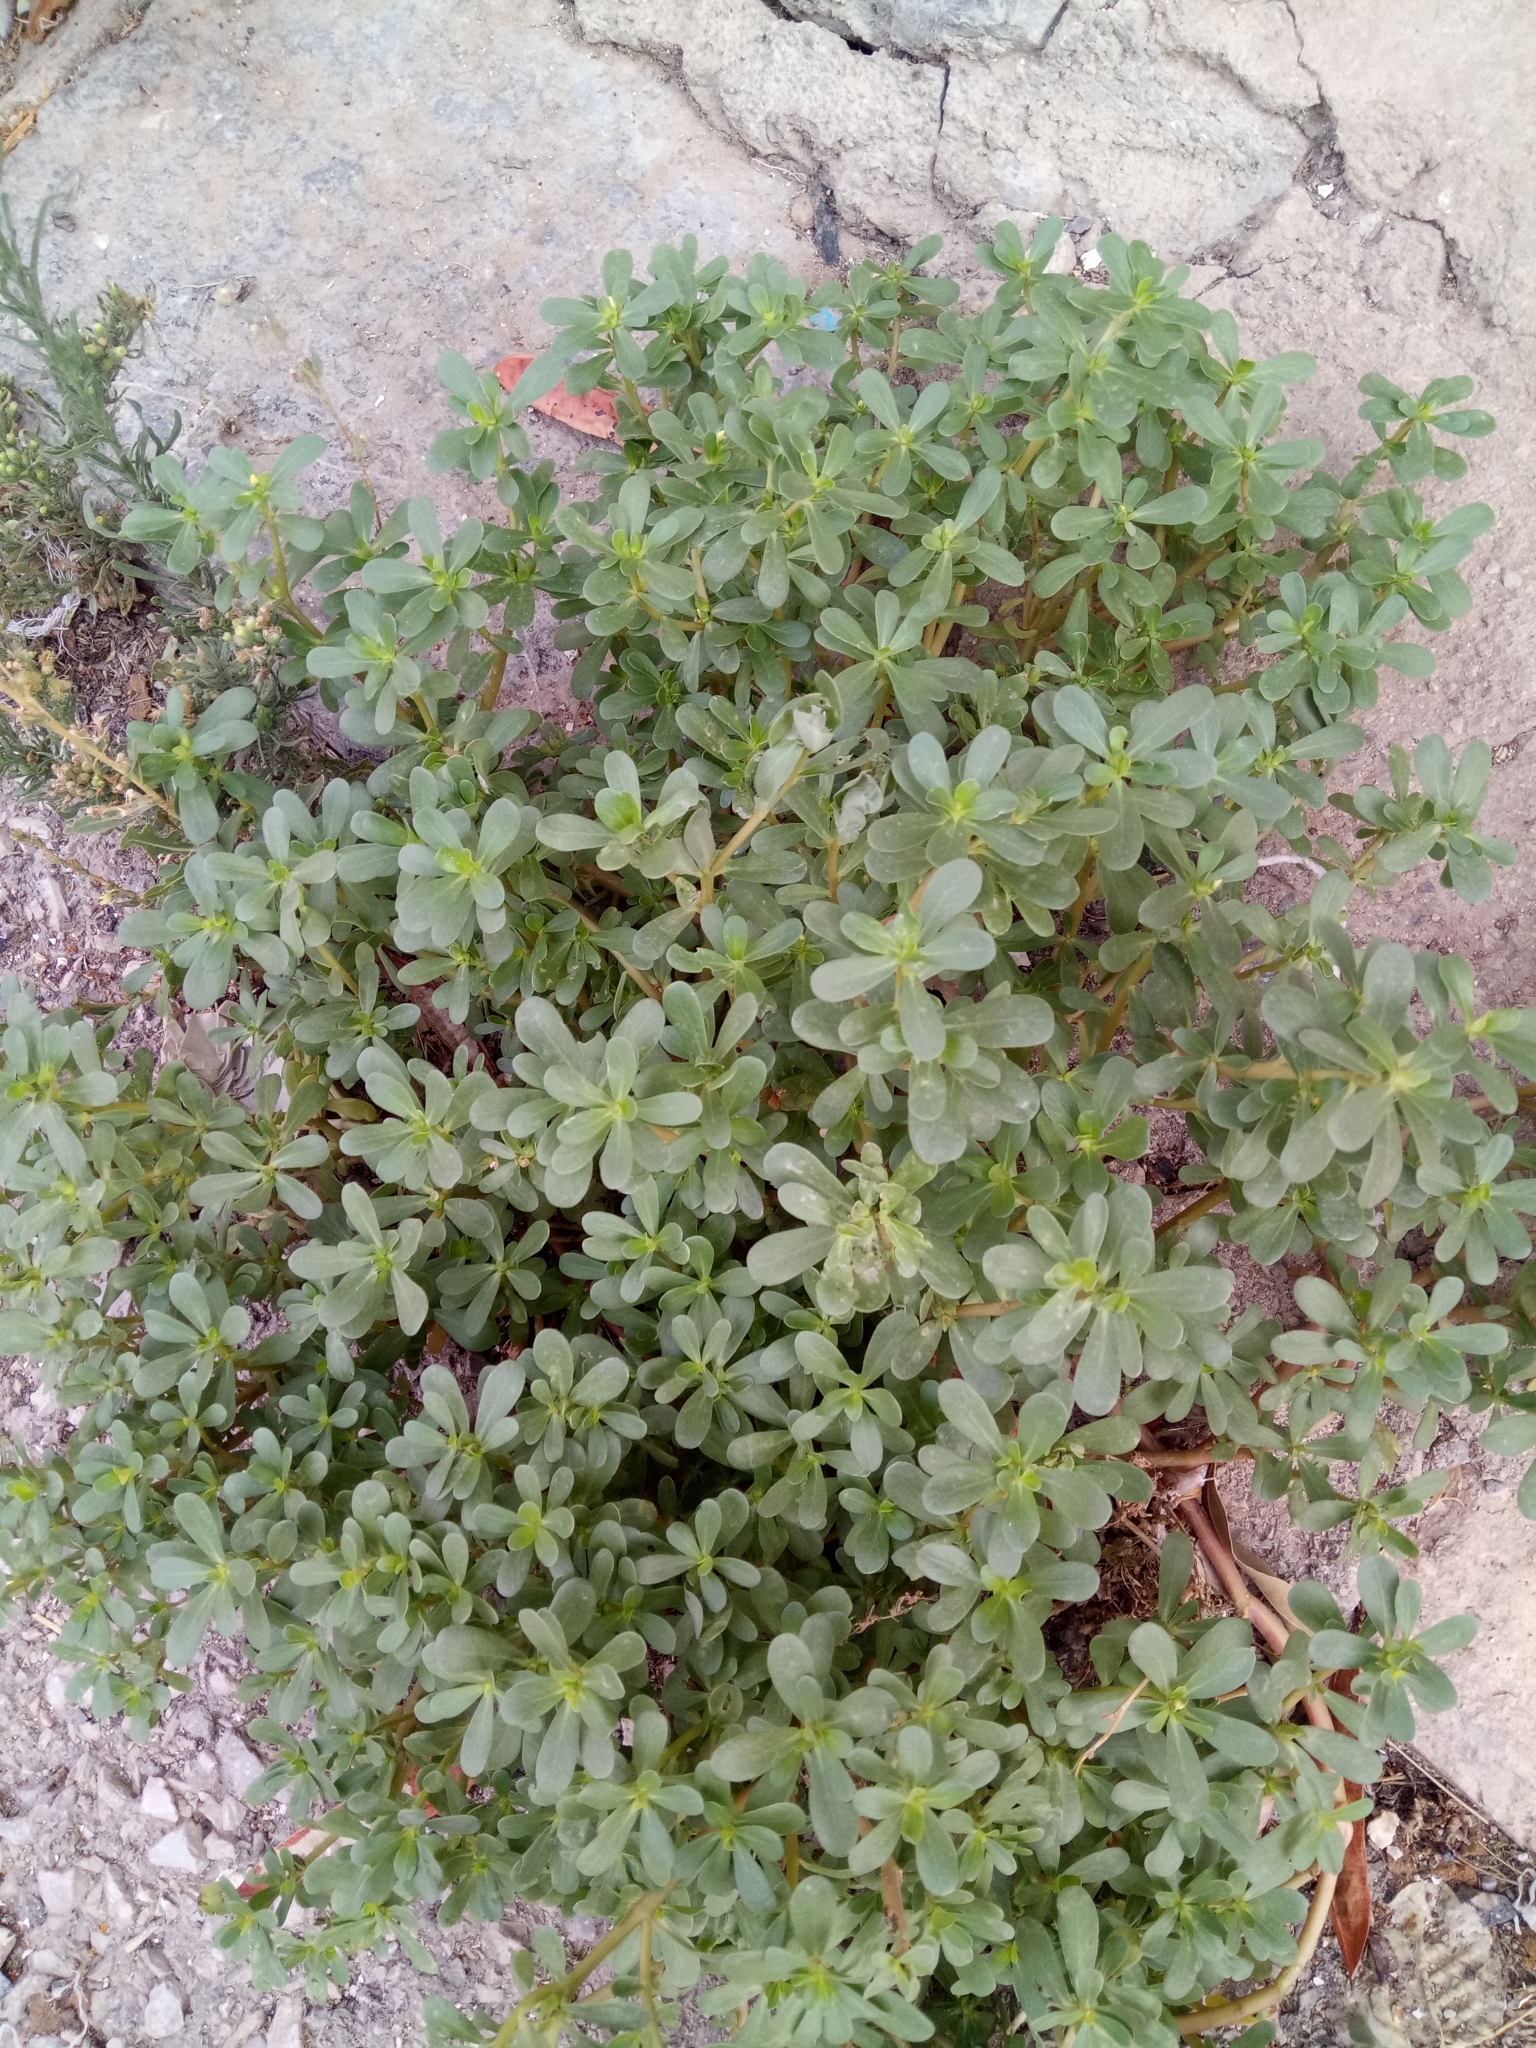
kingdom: Plantae
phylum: Tracheophyta
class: Magnoliopsida
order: Caryophyllales
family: Portulacaceae
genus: Portulaca
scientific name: Portulaca oleracea
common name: Common purslane
